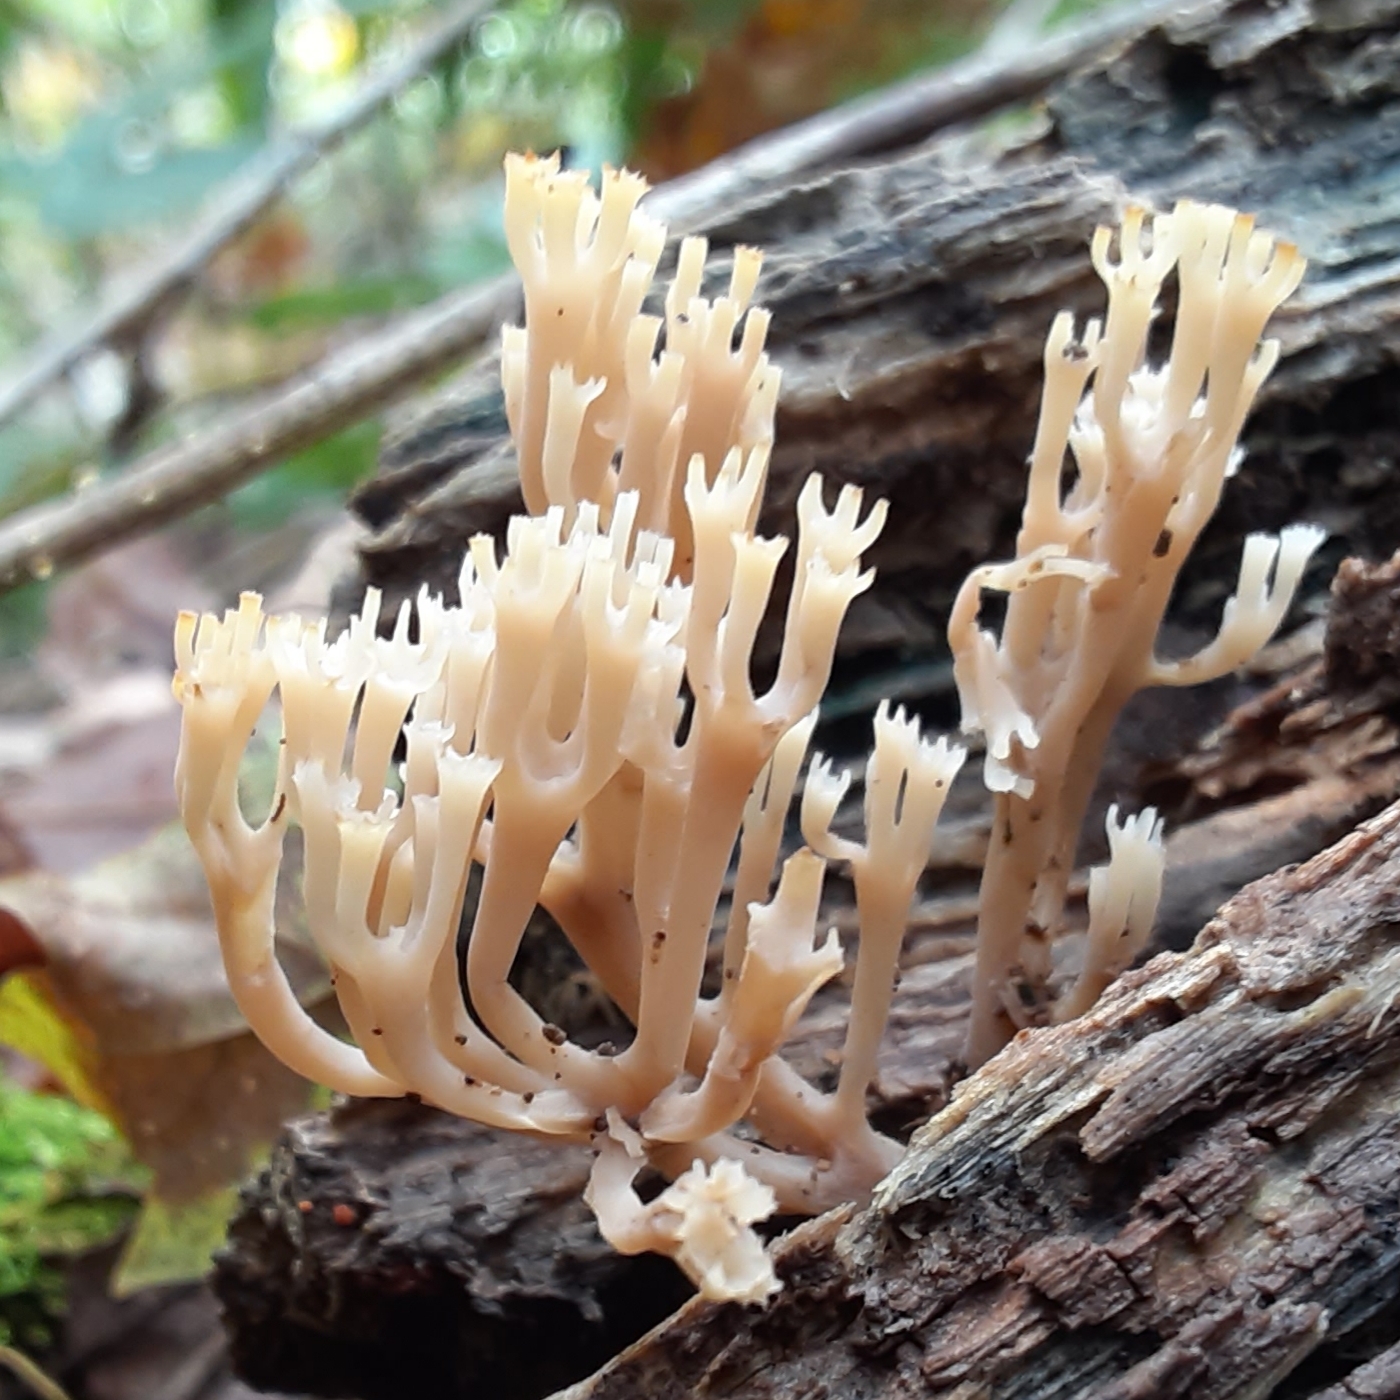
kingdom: Fungi
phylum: Basidiomycota
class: Agaricomycetes
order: Russulales
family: Auriscalpiaceae
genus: Artomyces
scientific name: Artomyces pyxidatus
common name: Crown-tipped coral fungus
